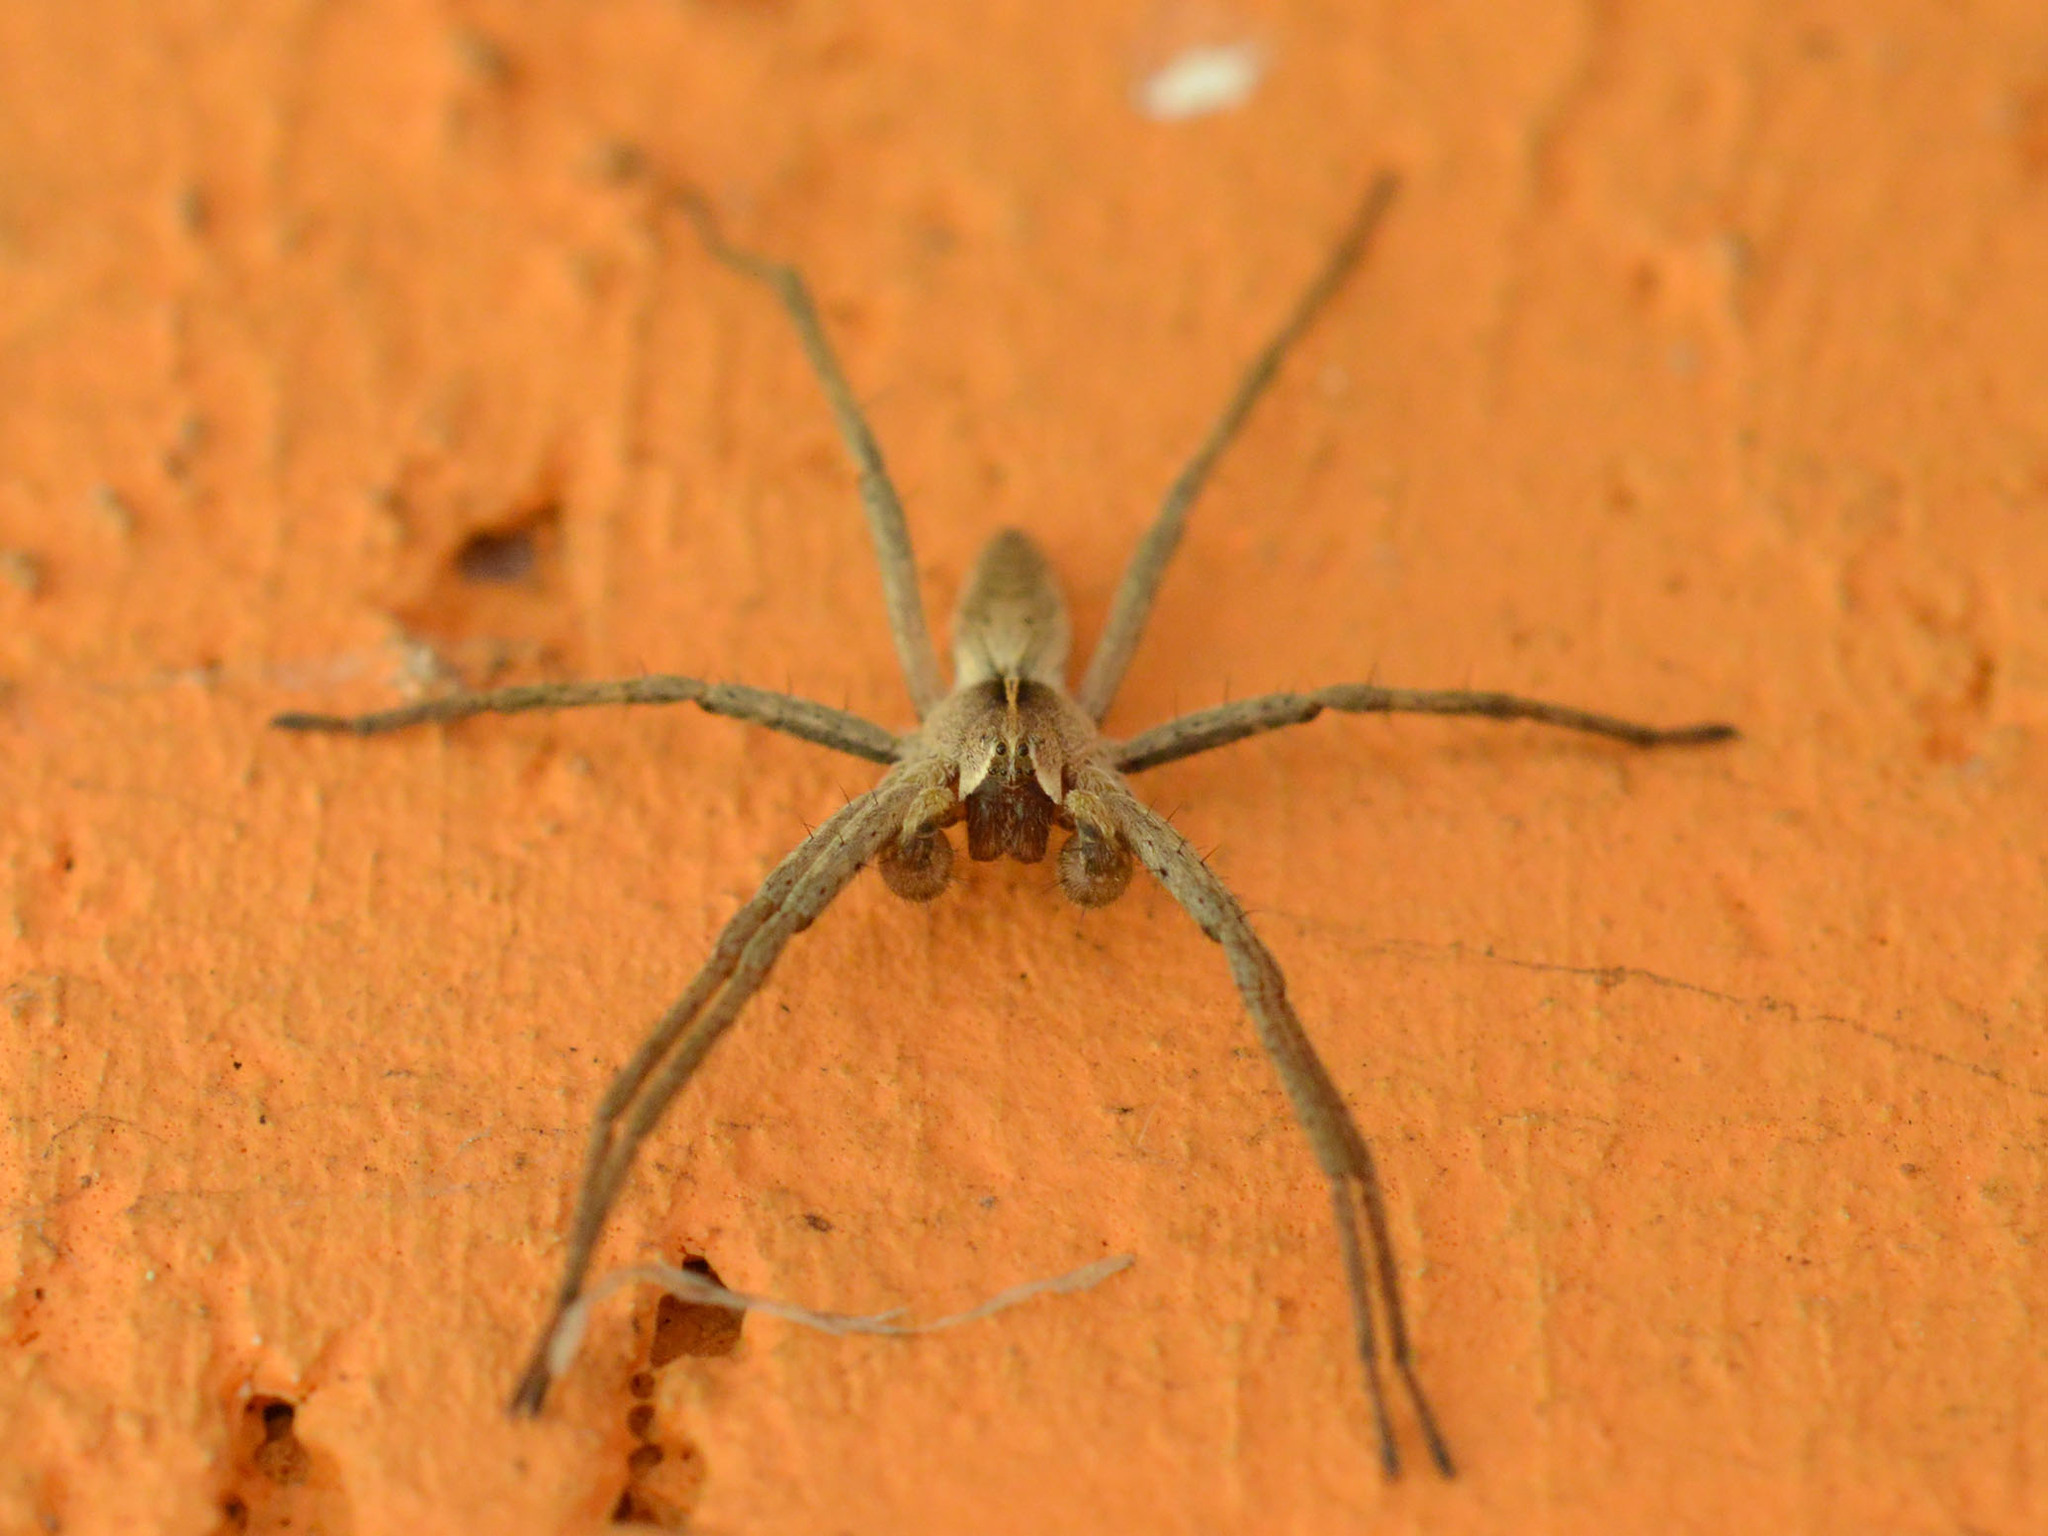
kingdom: Animalia
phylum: Arthropoda
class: Arachnida
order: Araneae
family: Pisauridae
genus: Pisaura
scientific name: Pisaura
